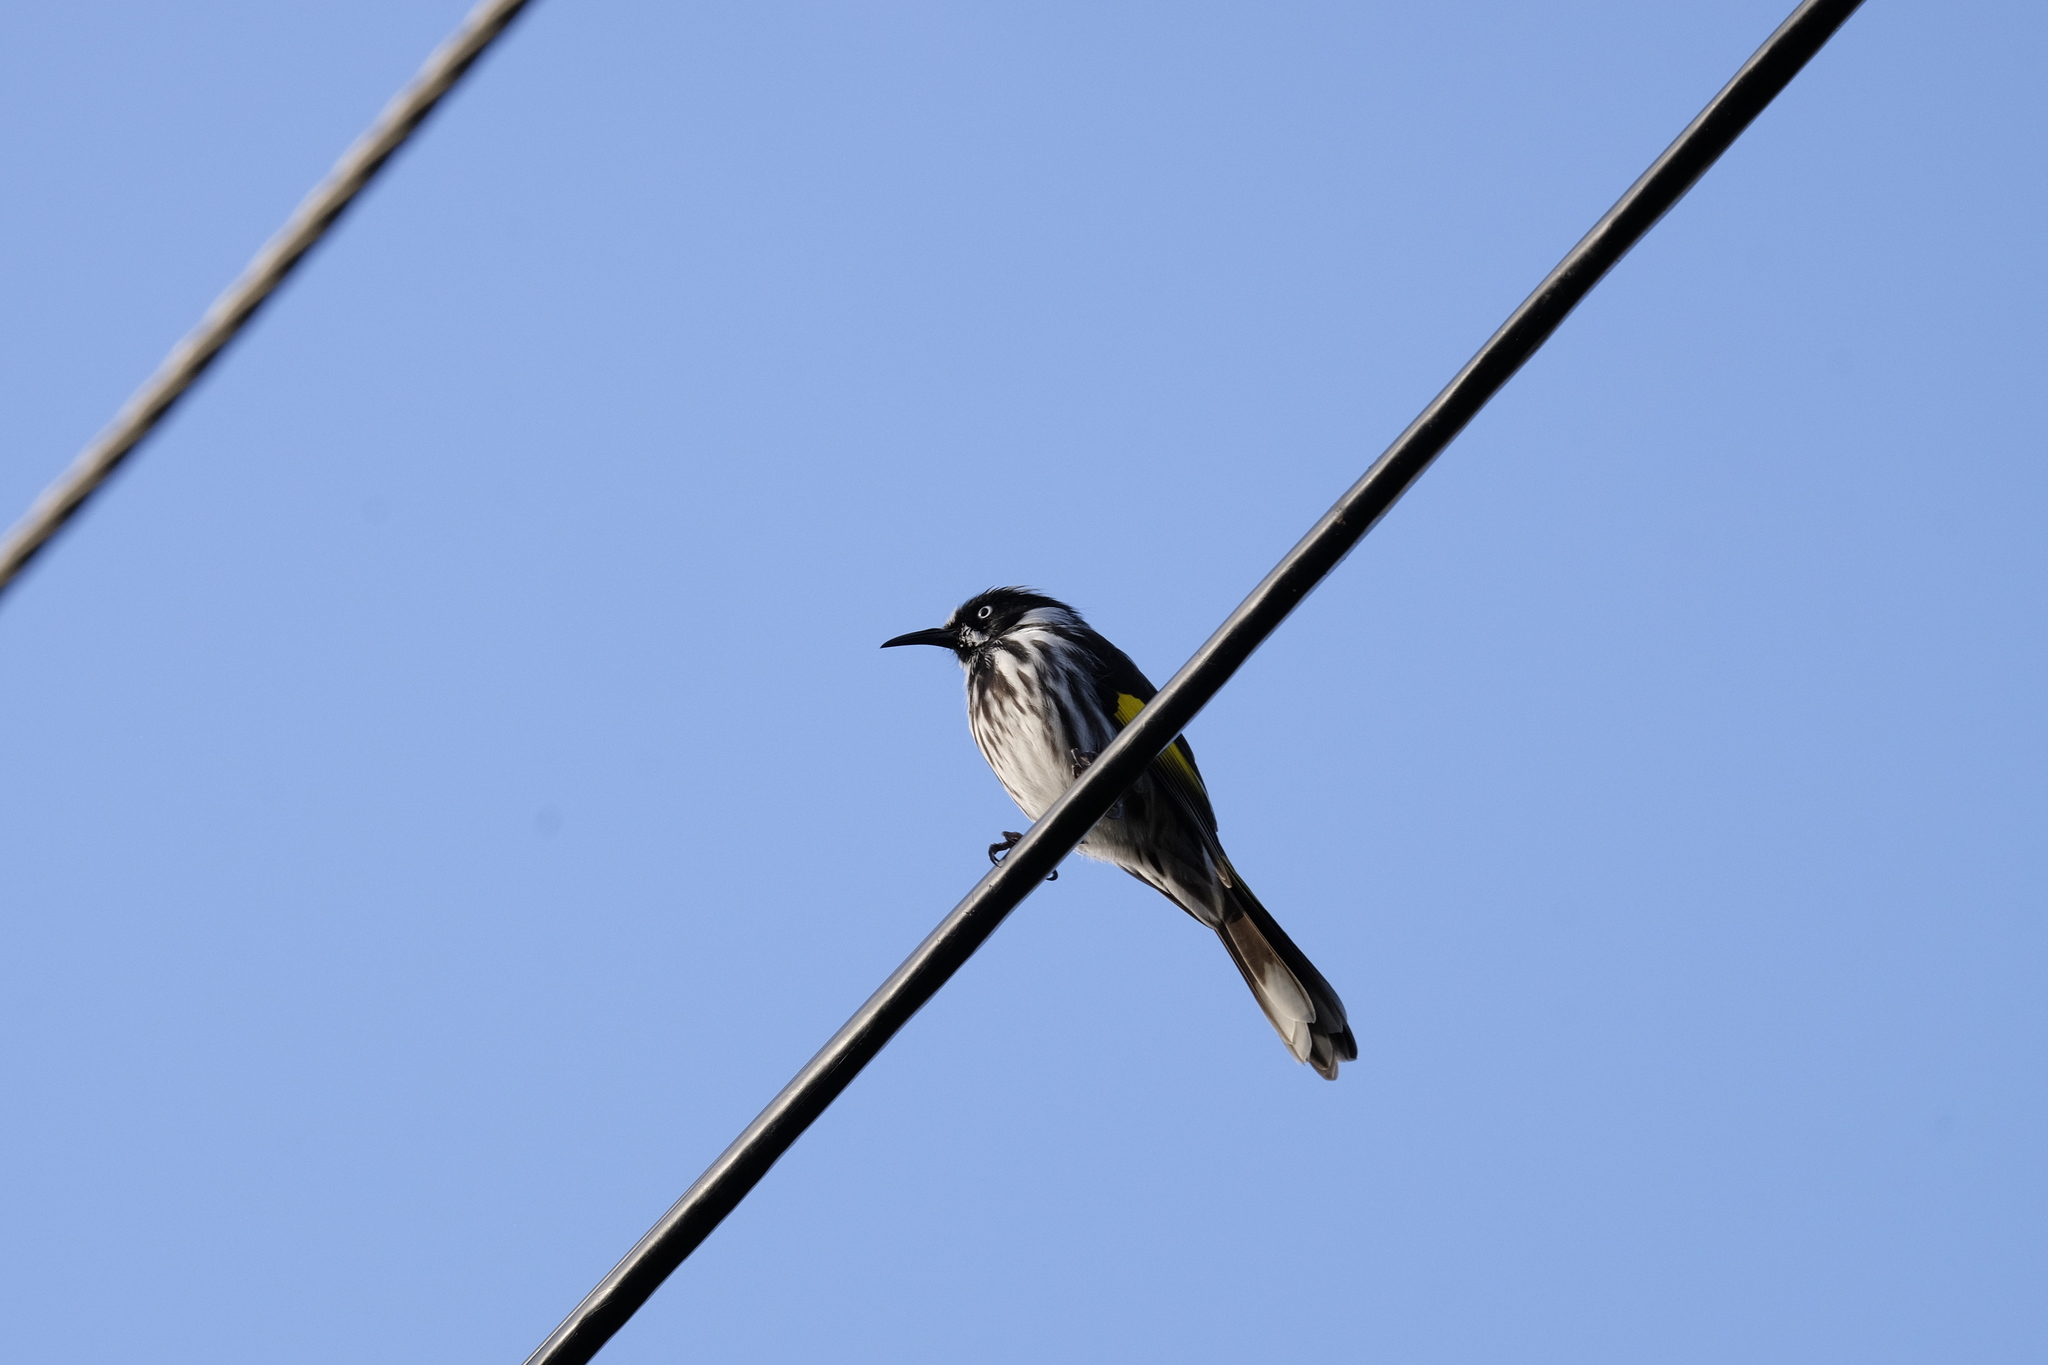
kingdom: Animalia
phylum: Chordata
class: Aves
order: Passeriformes
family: Meliphagidae
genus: Phylidonyris
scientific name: Phylidonyris novaehollandiae
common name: New holland honeyeater
